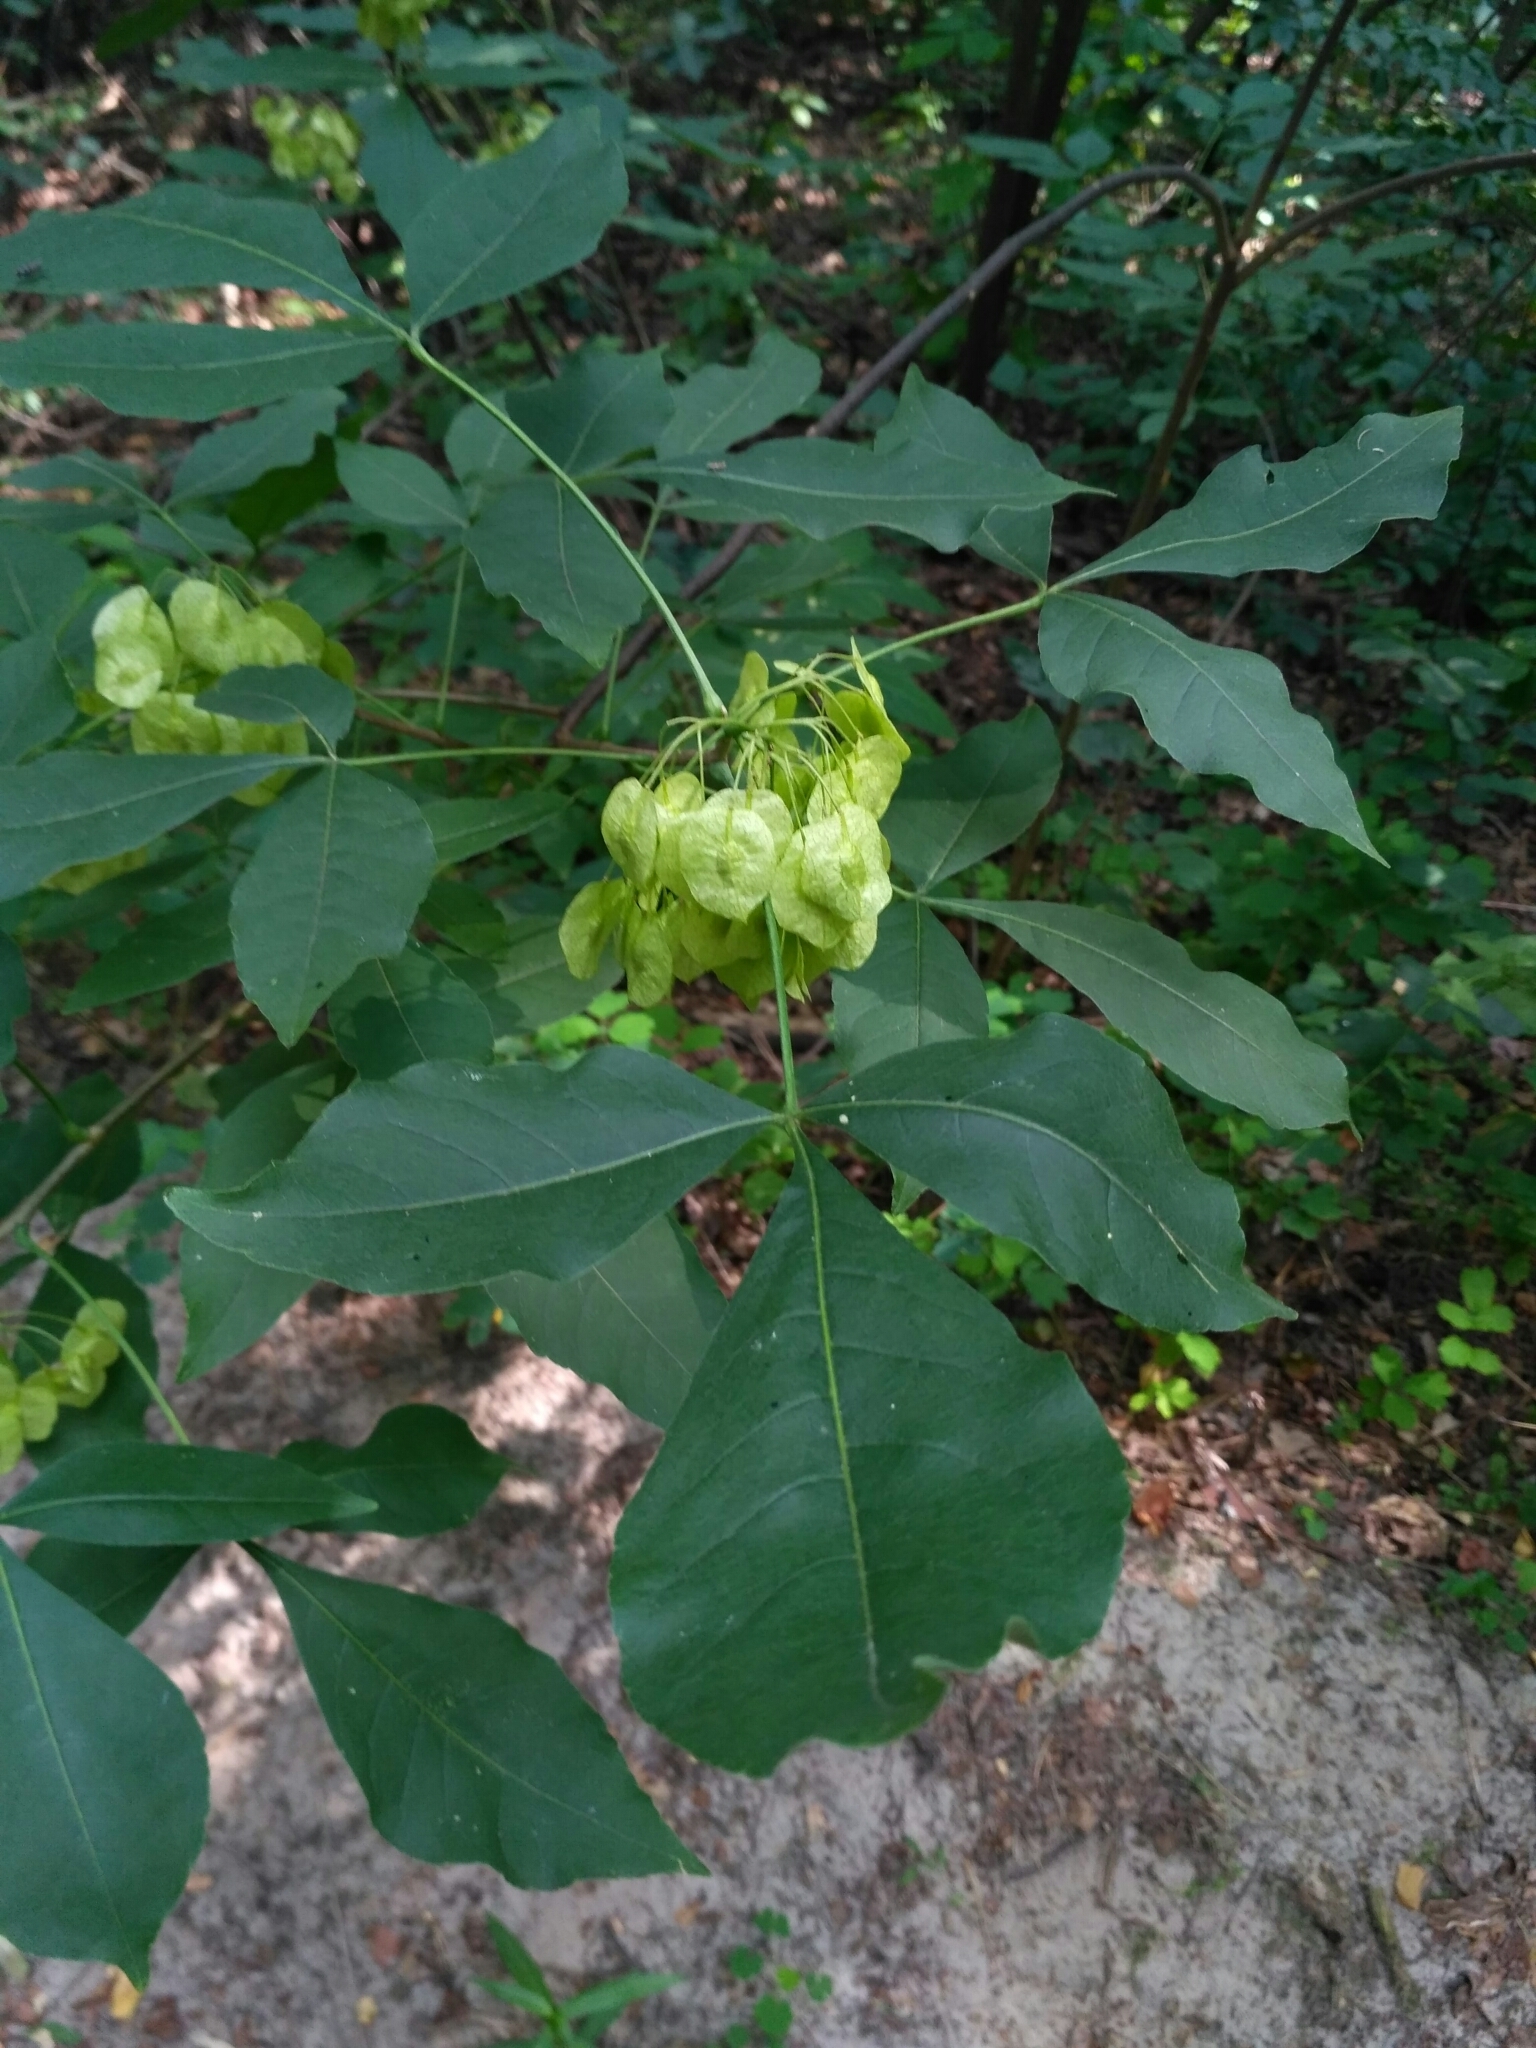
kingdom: Plantae
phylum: Tracheophyta
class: Magnoliopsida
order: Sapindales
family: Rutaceae
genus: Ptelea
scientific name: Ptelea trifoliata
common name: Common hop-tree
